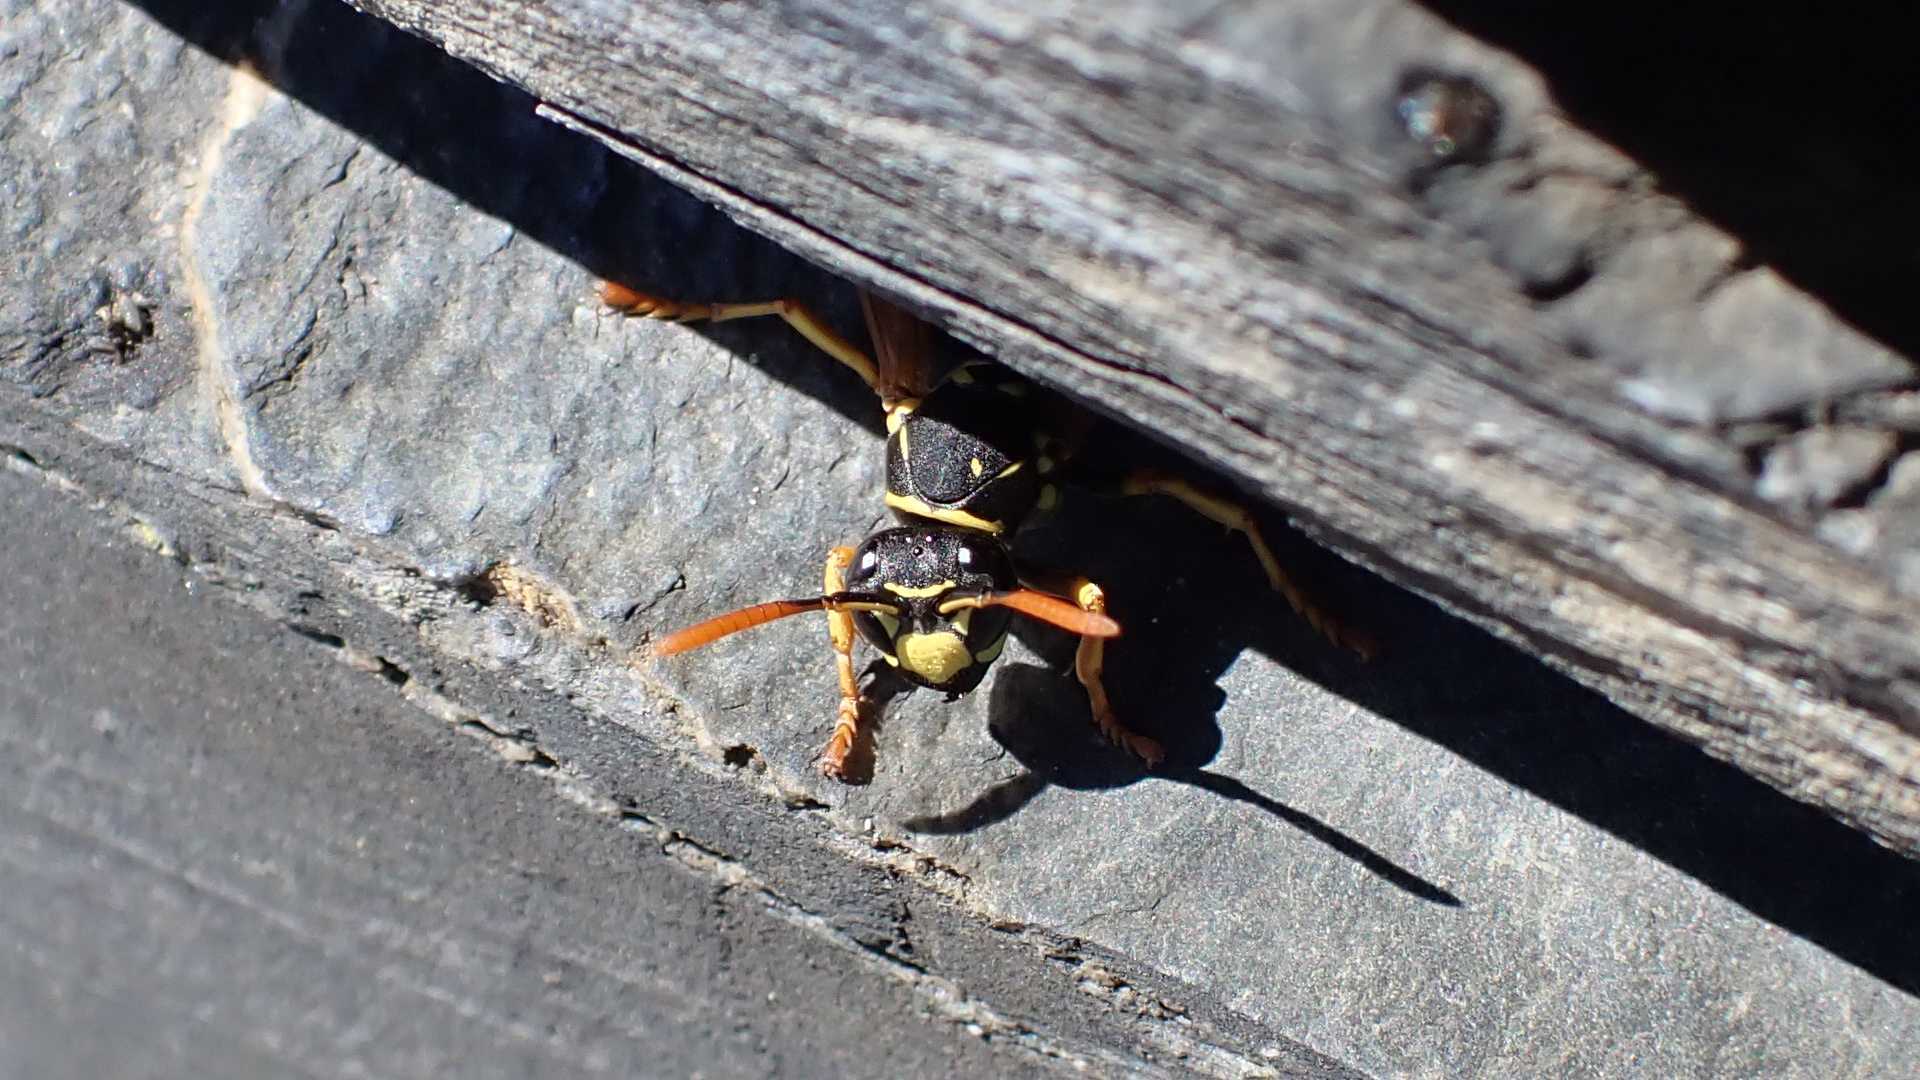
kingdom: Animalia
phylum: Arthropoda
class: Insecta
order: Hymenoptera
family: Eumenidae
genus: Polistes
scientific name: Polistes dominula
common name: Paper wasp
